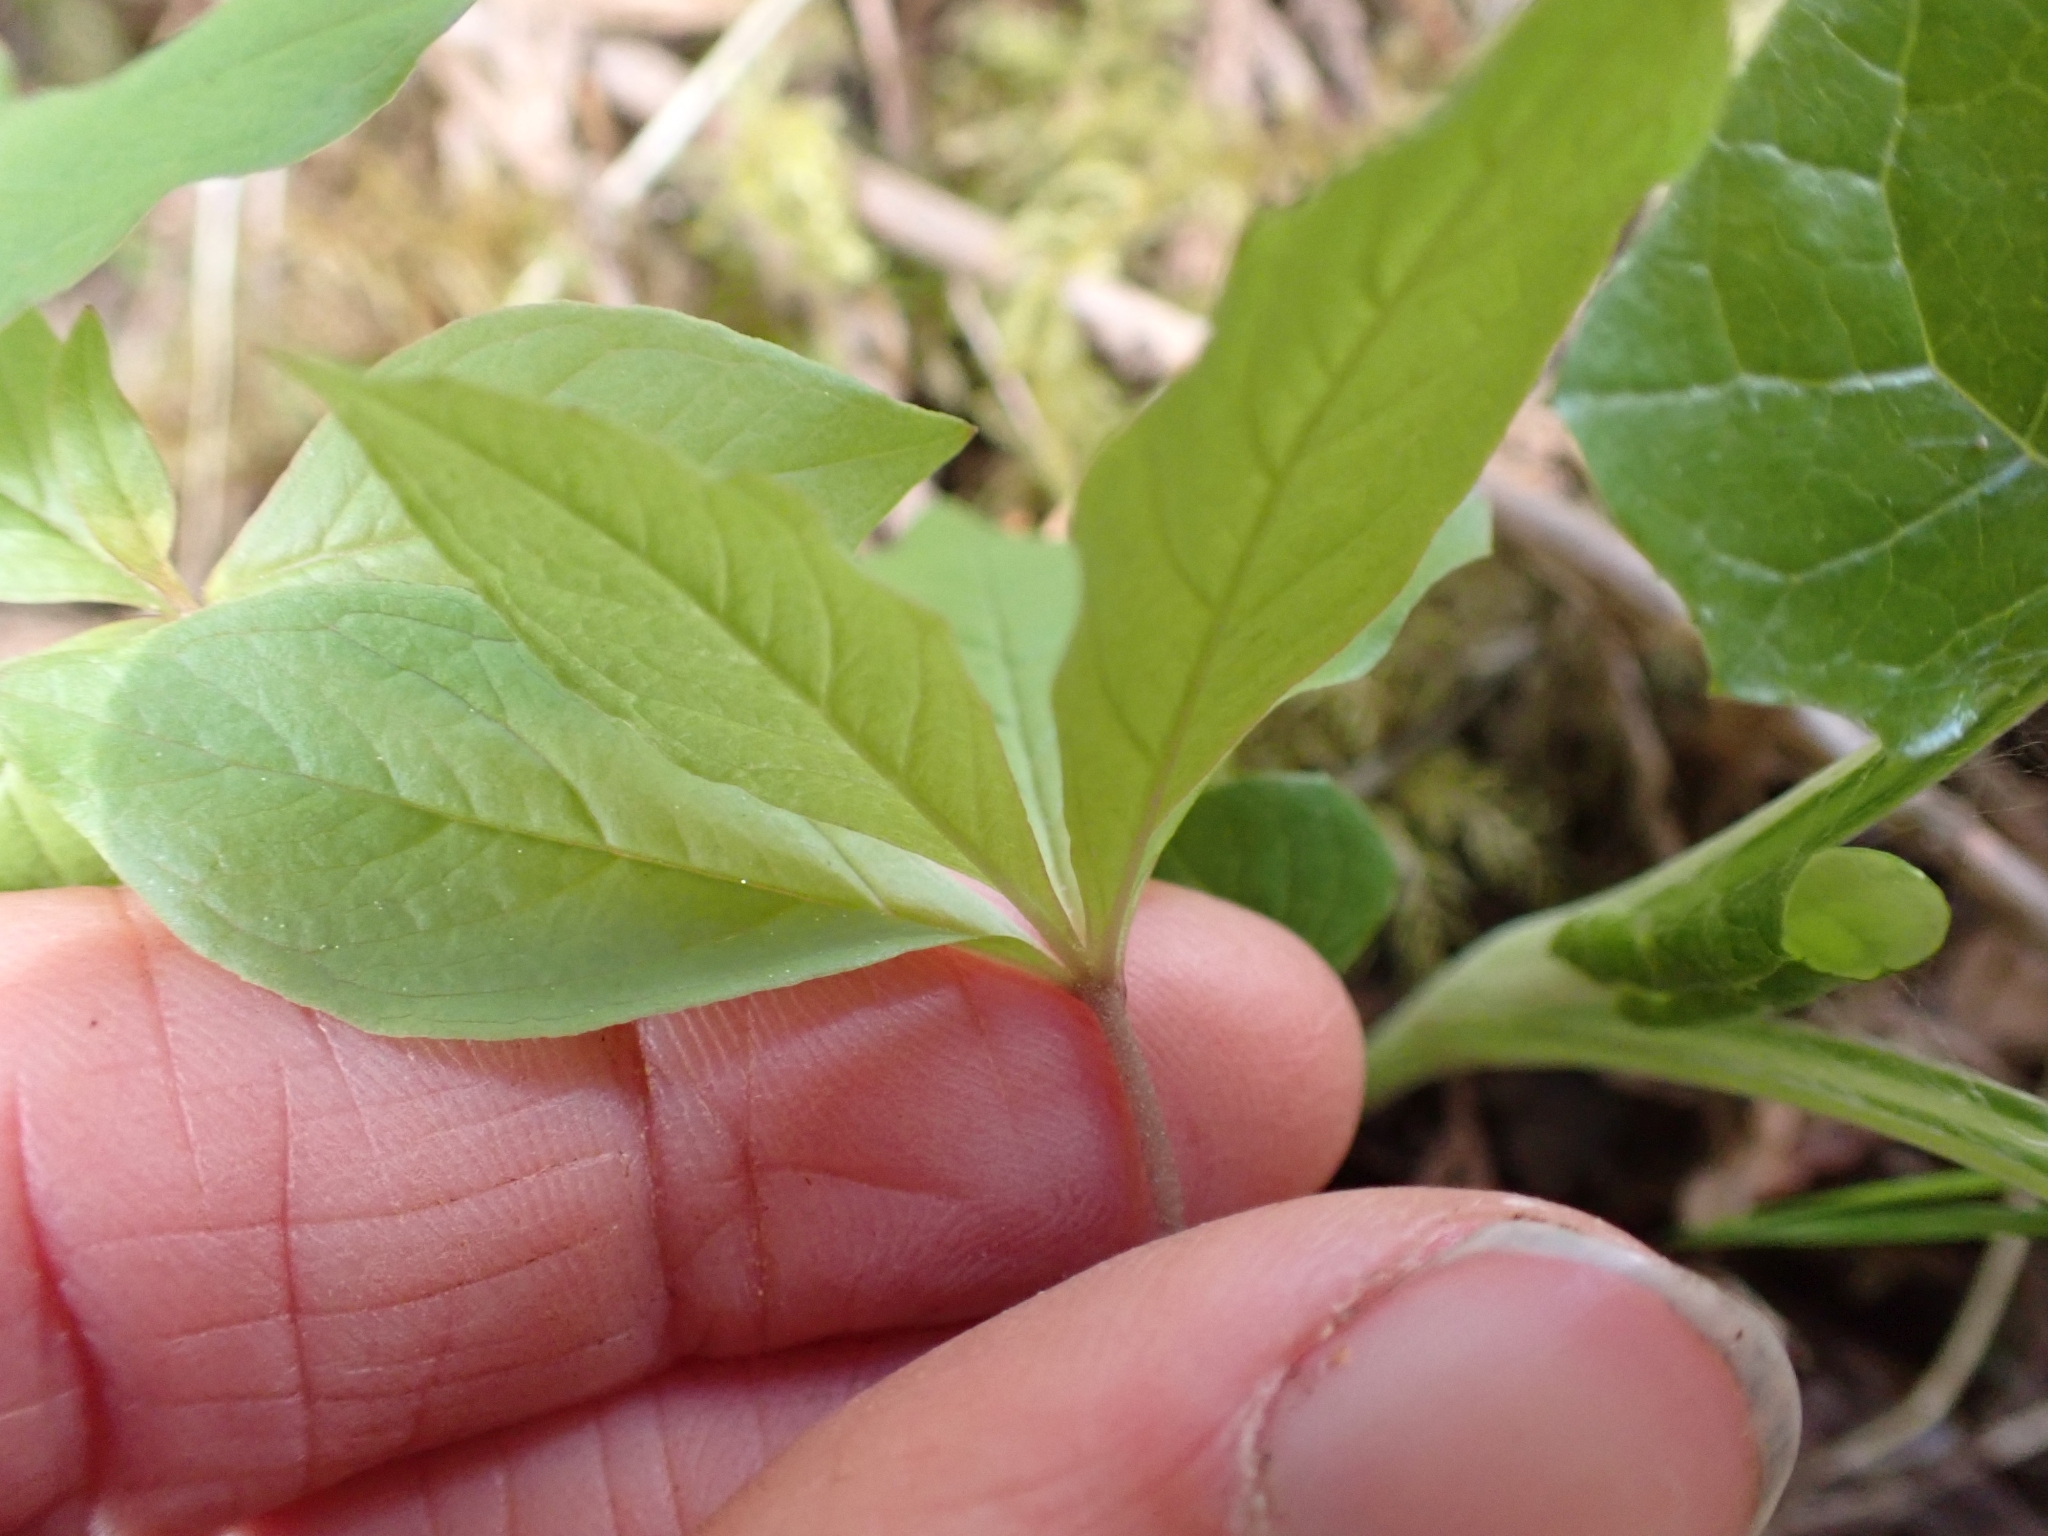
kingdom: Plantae
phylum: Tracheophyta
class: Magnoliopsida
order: Ericales
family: Primulaceae
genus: Lysimachia
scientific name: Lysimachia latifolia
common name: Pacific starflower
